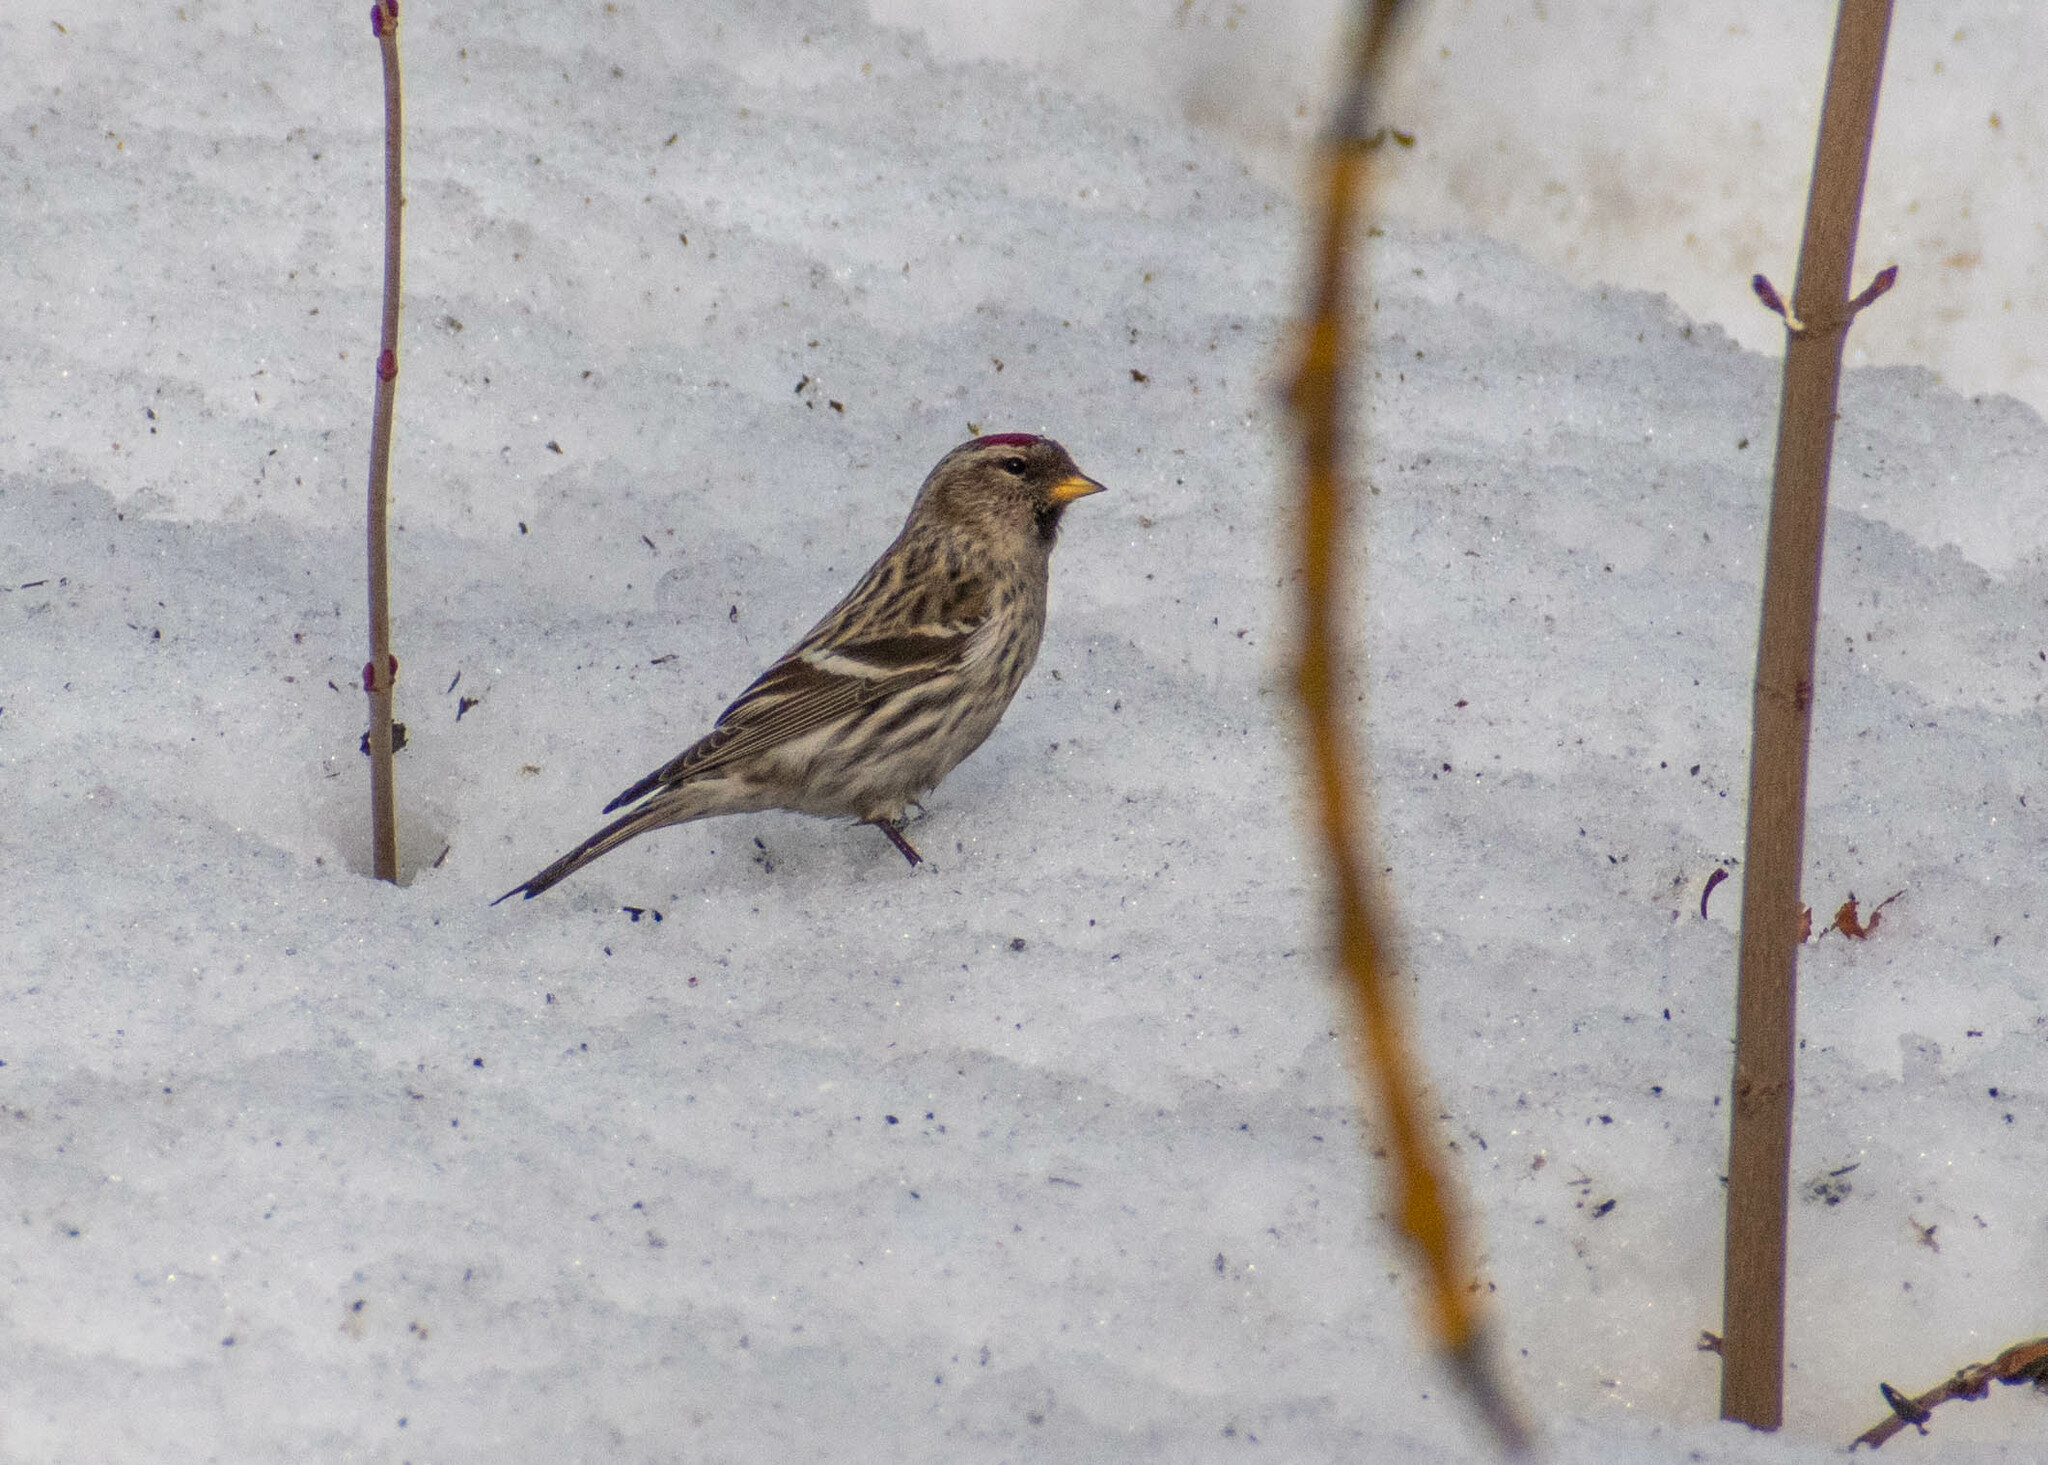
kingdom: Animalia
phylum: Chordata
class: Aves
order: Passeriformes
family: Fringillidae
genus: Acanthis
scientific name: Acanthis flammea
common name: Common redpoll
